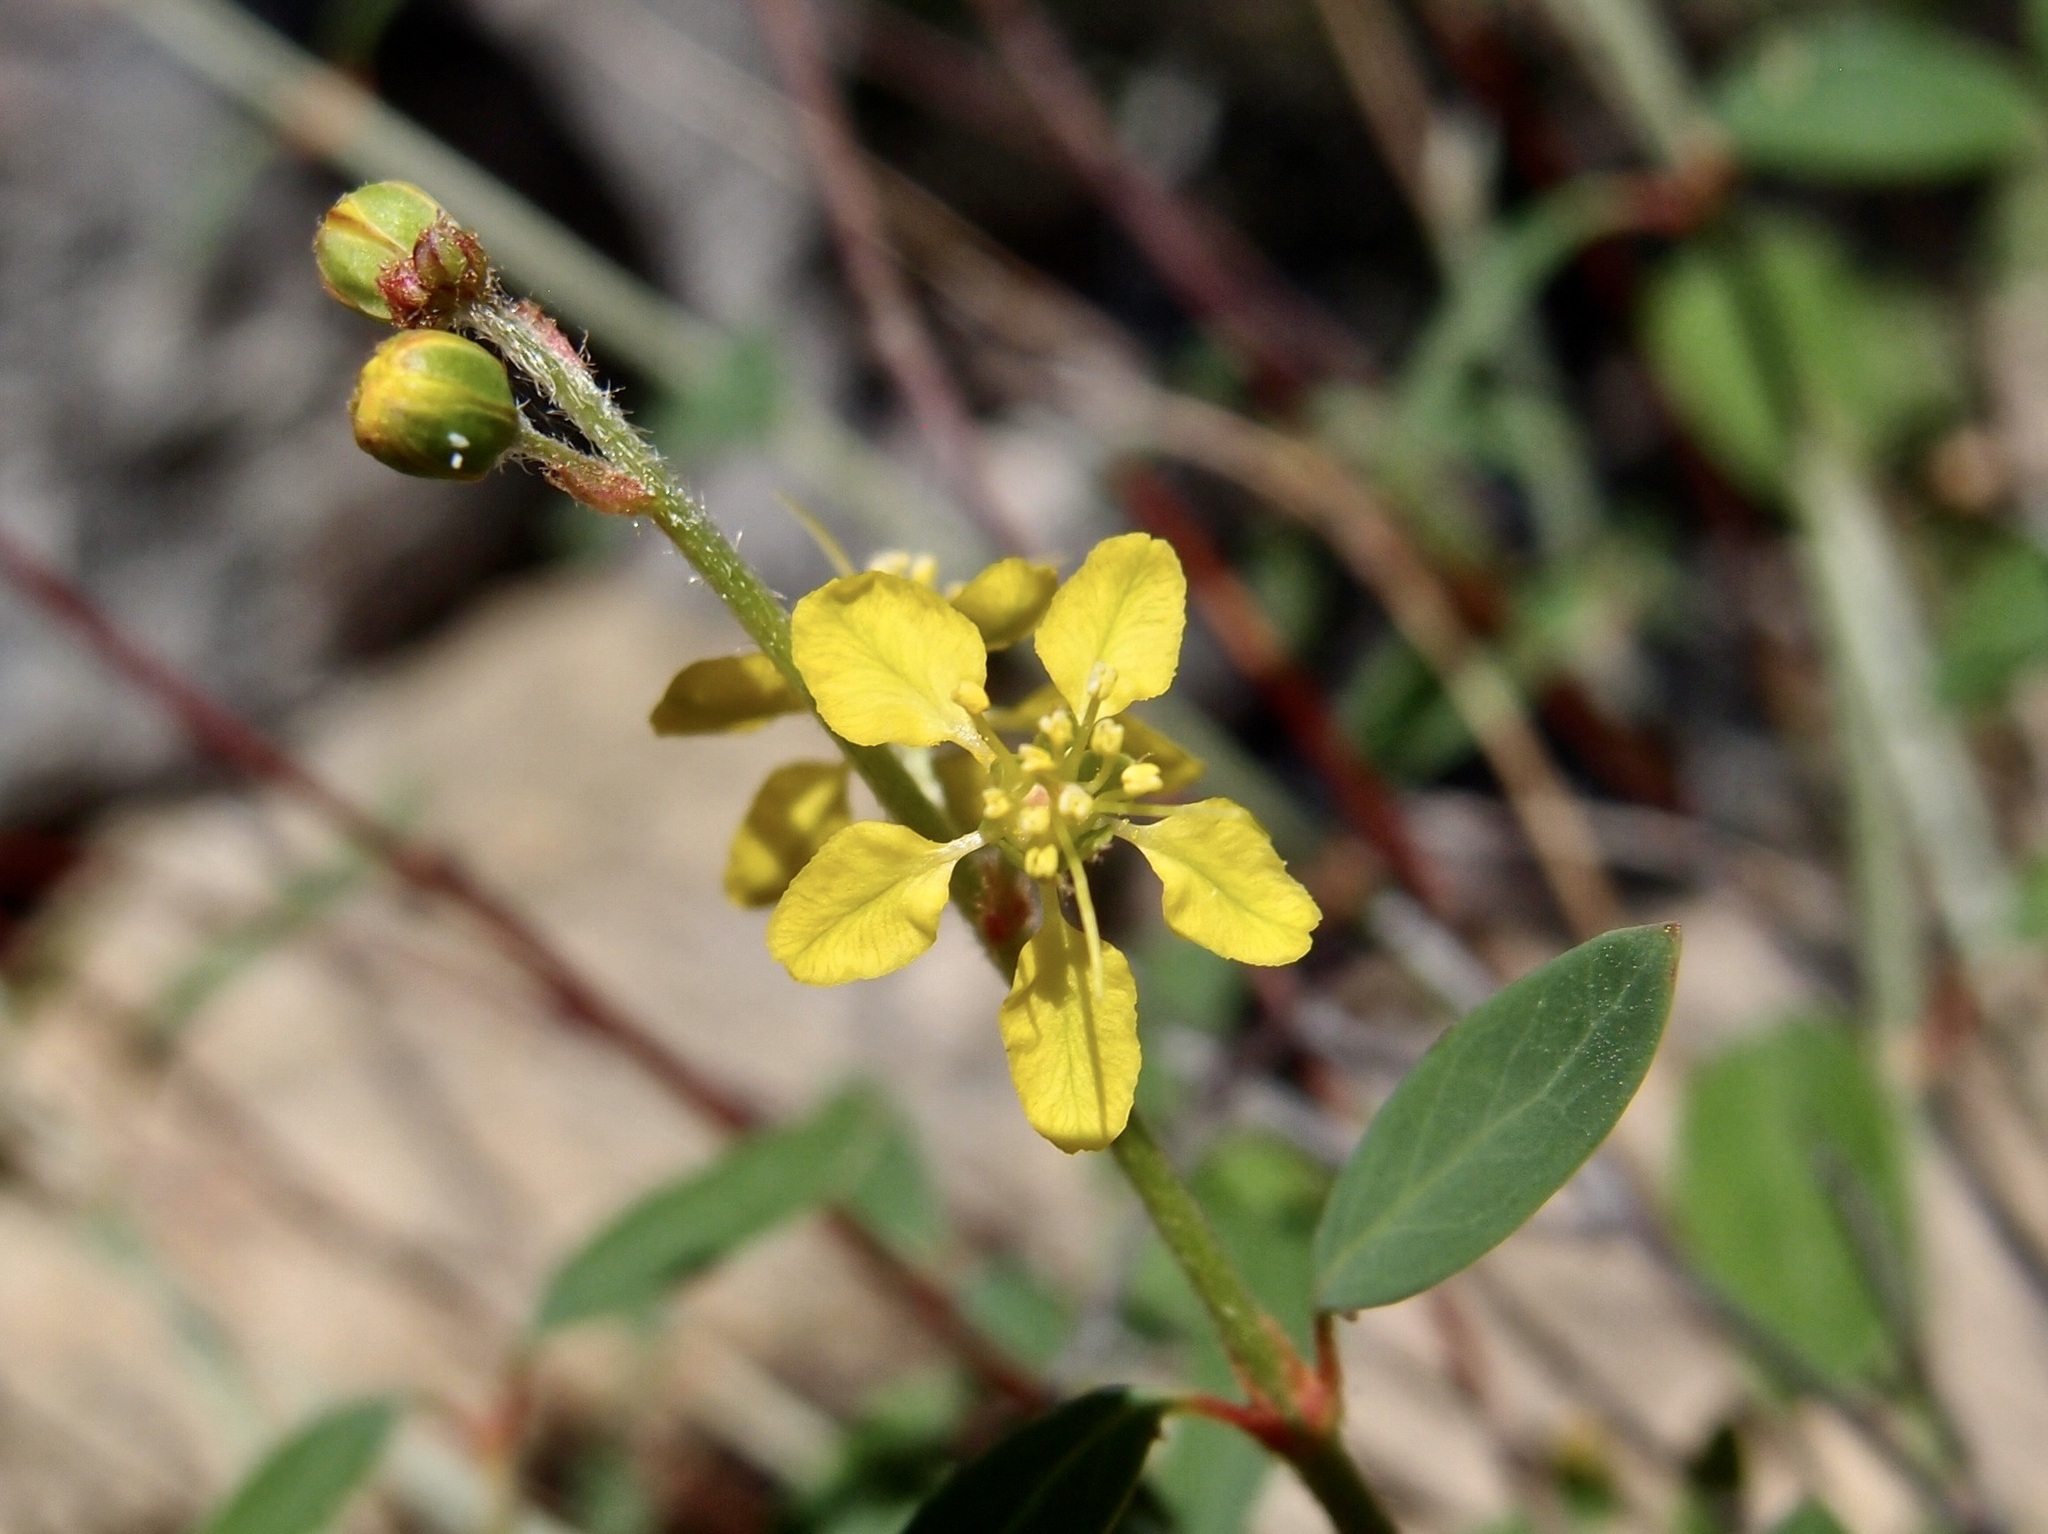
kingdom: Plantae
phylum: Tracheophyta
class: Magnoliopsida
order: Malpighiales
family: Malpighiaceae
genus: Galphimia
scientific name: Galphimia angustifolia
